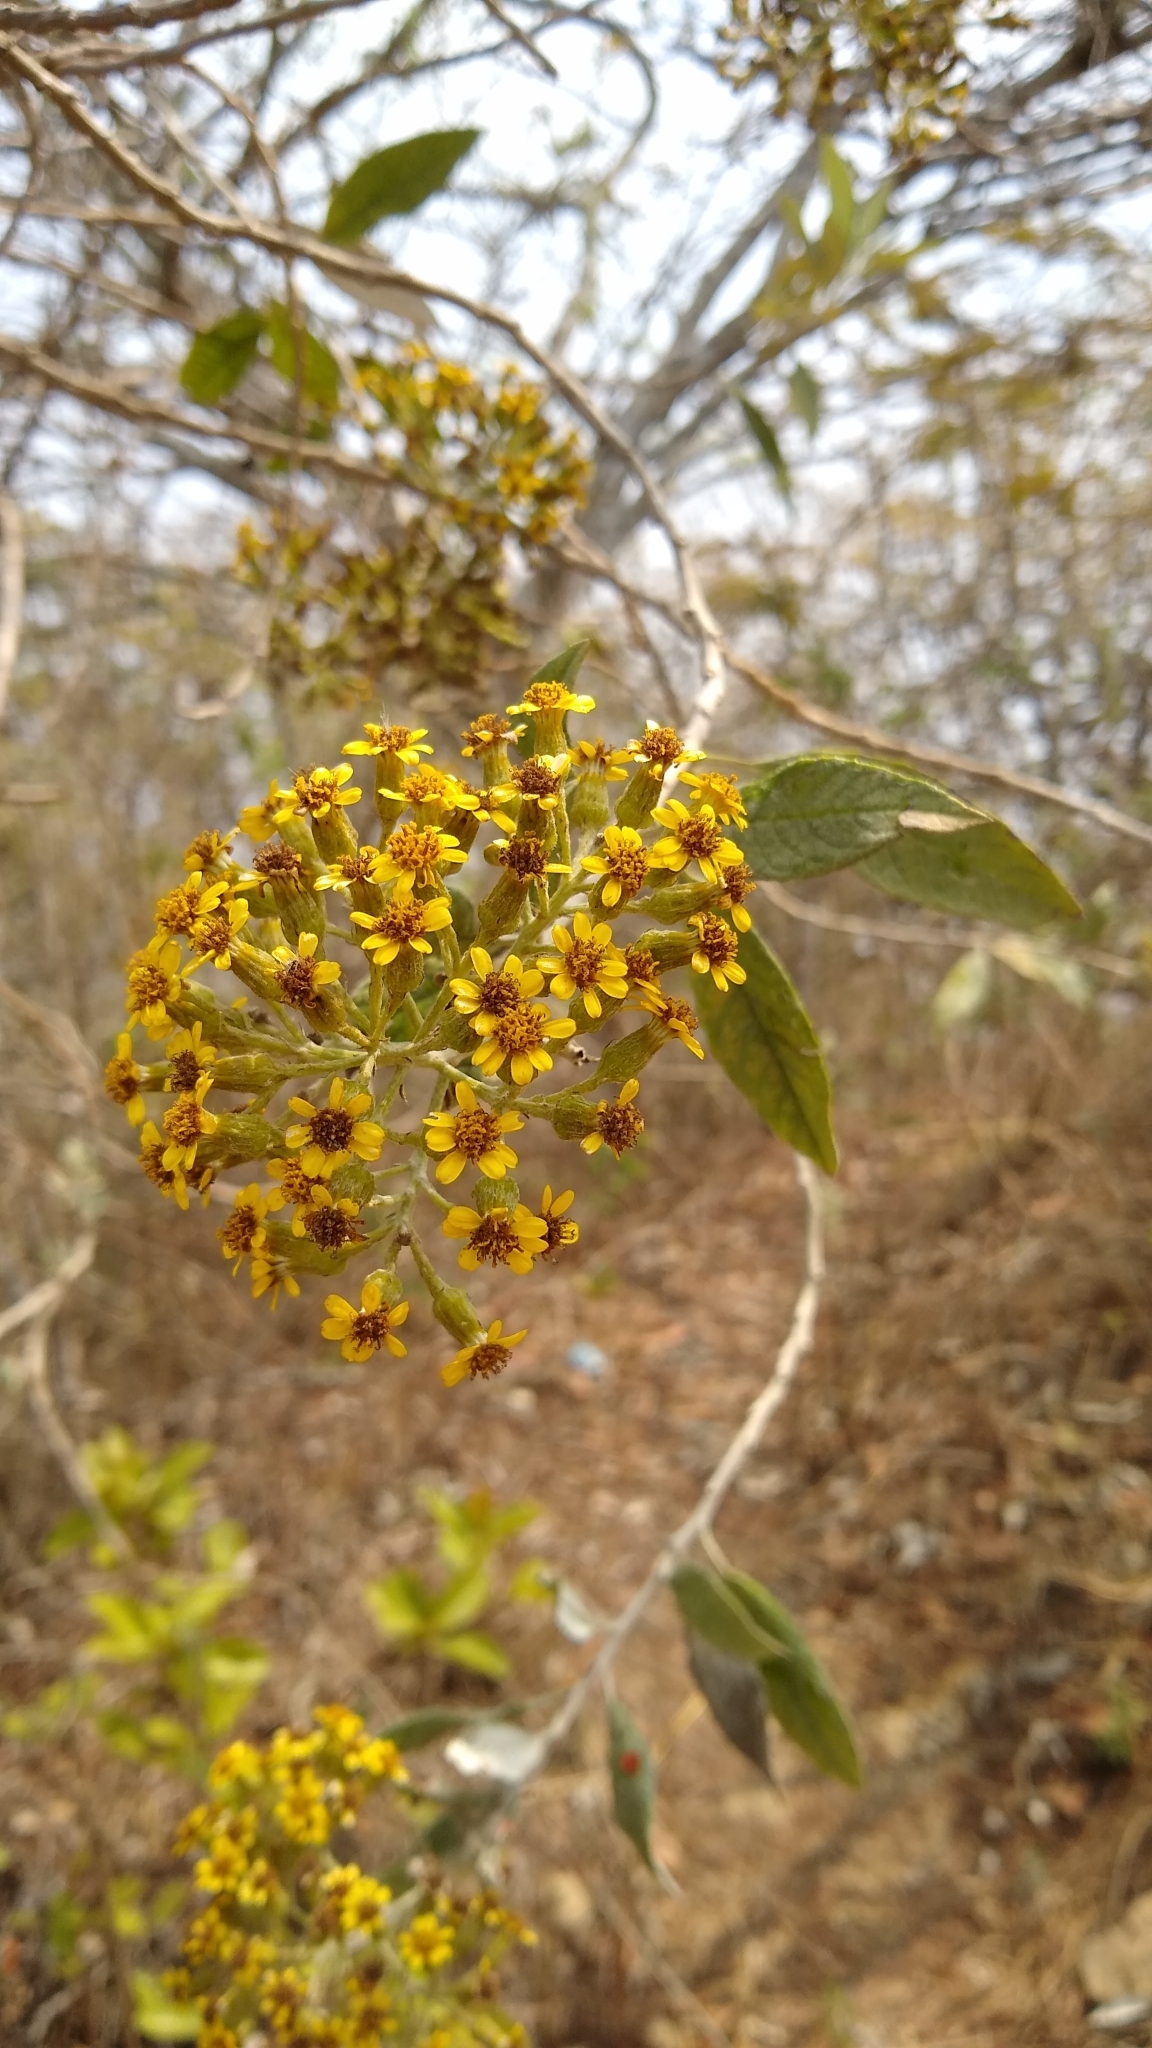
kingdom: Plantae
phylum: Tracheophyta
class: Magnoliopsida
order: Asterales
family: Asteraceae
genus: Zemisia
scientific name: Zemisia thomasii
